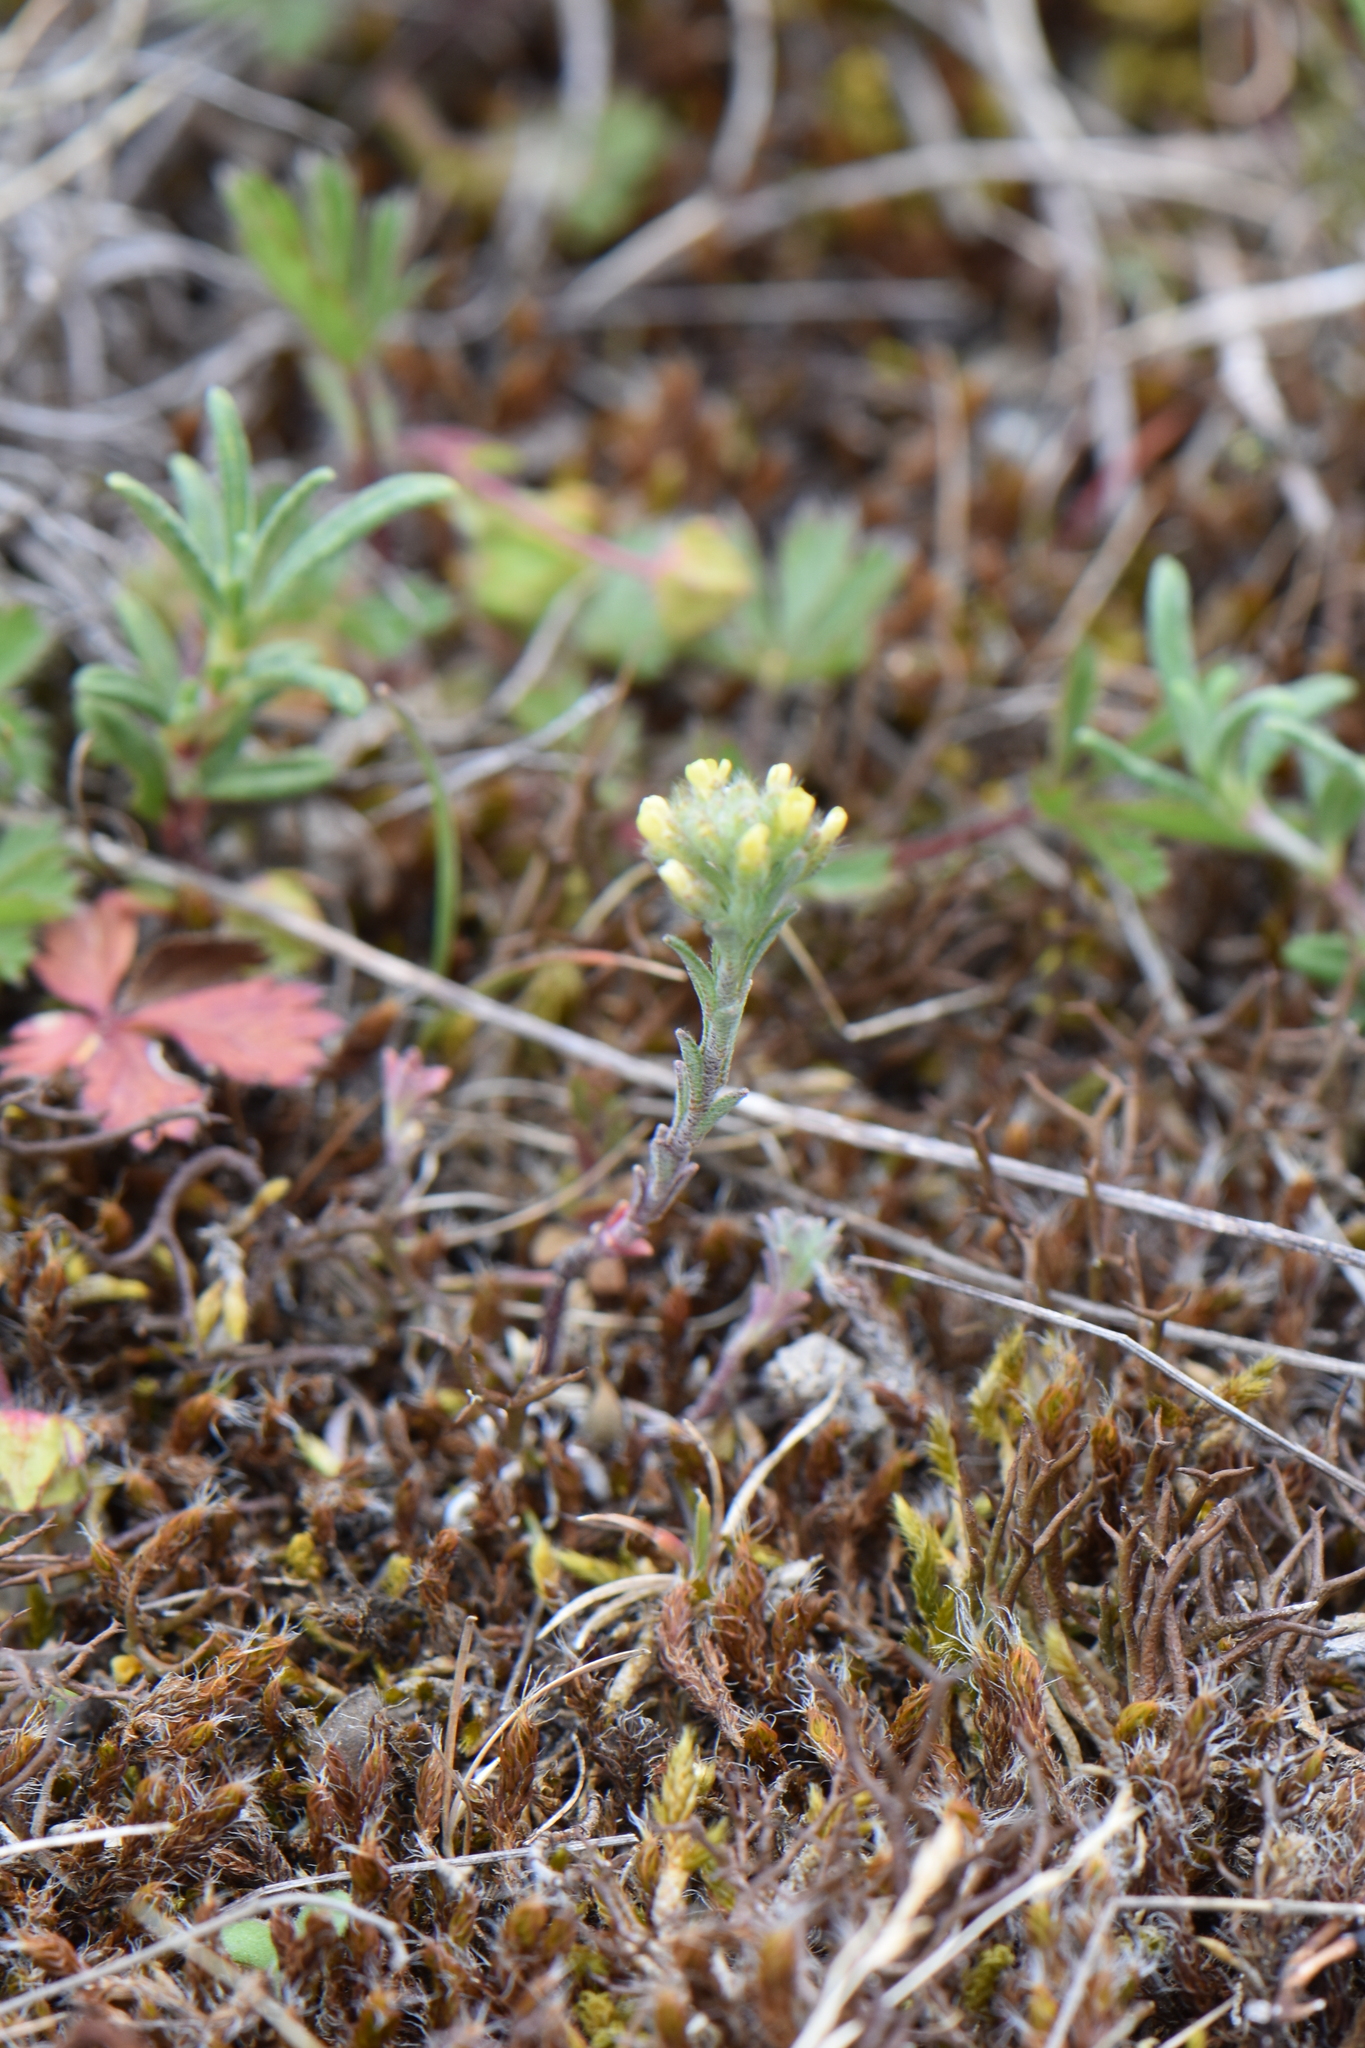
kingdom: Plantae
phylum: Tracheophyta
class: Magnoliopsida
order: Brassicales
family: Brassicaceae
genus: Alyssum
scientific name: Alyssum alyssoides
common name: Small alison
